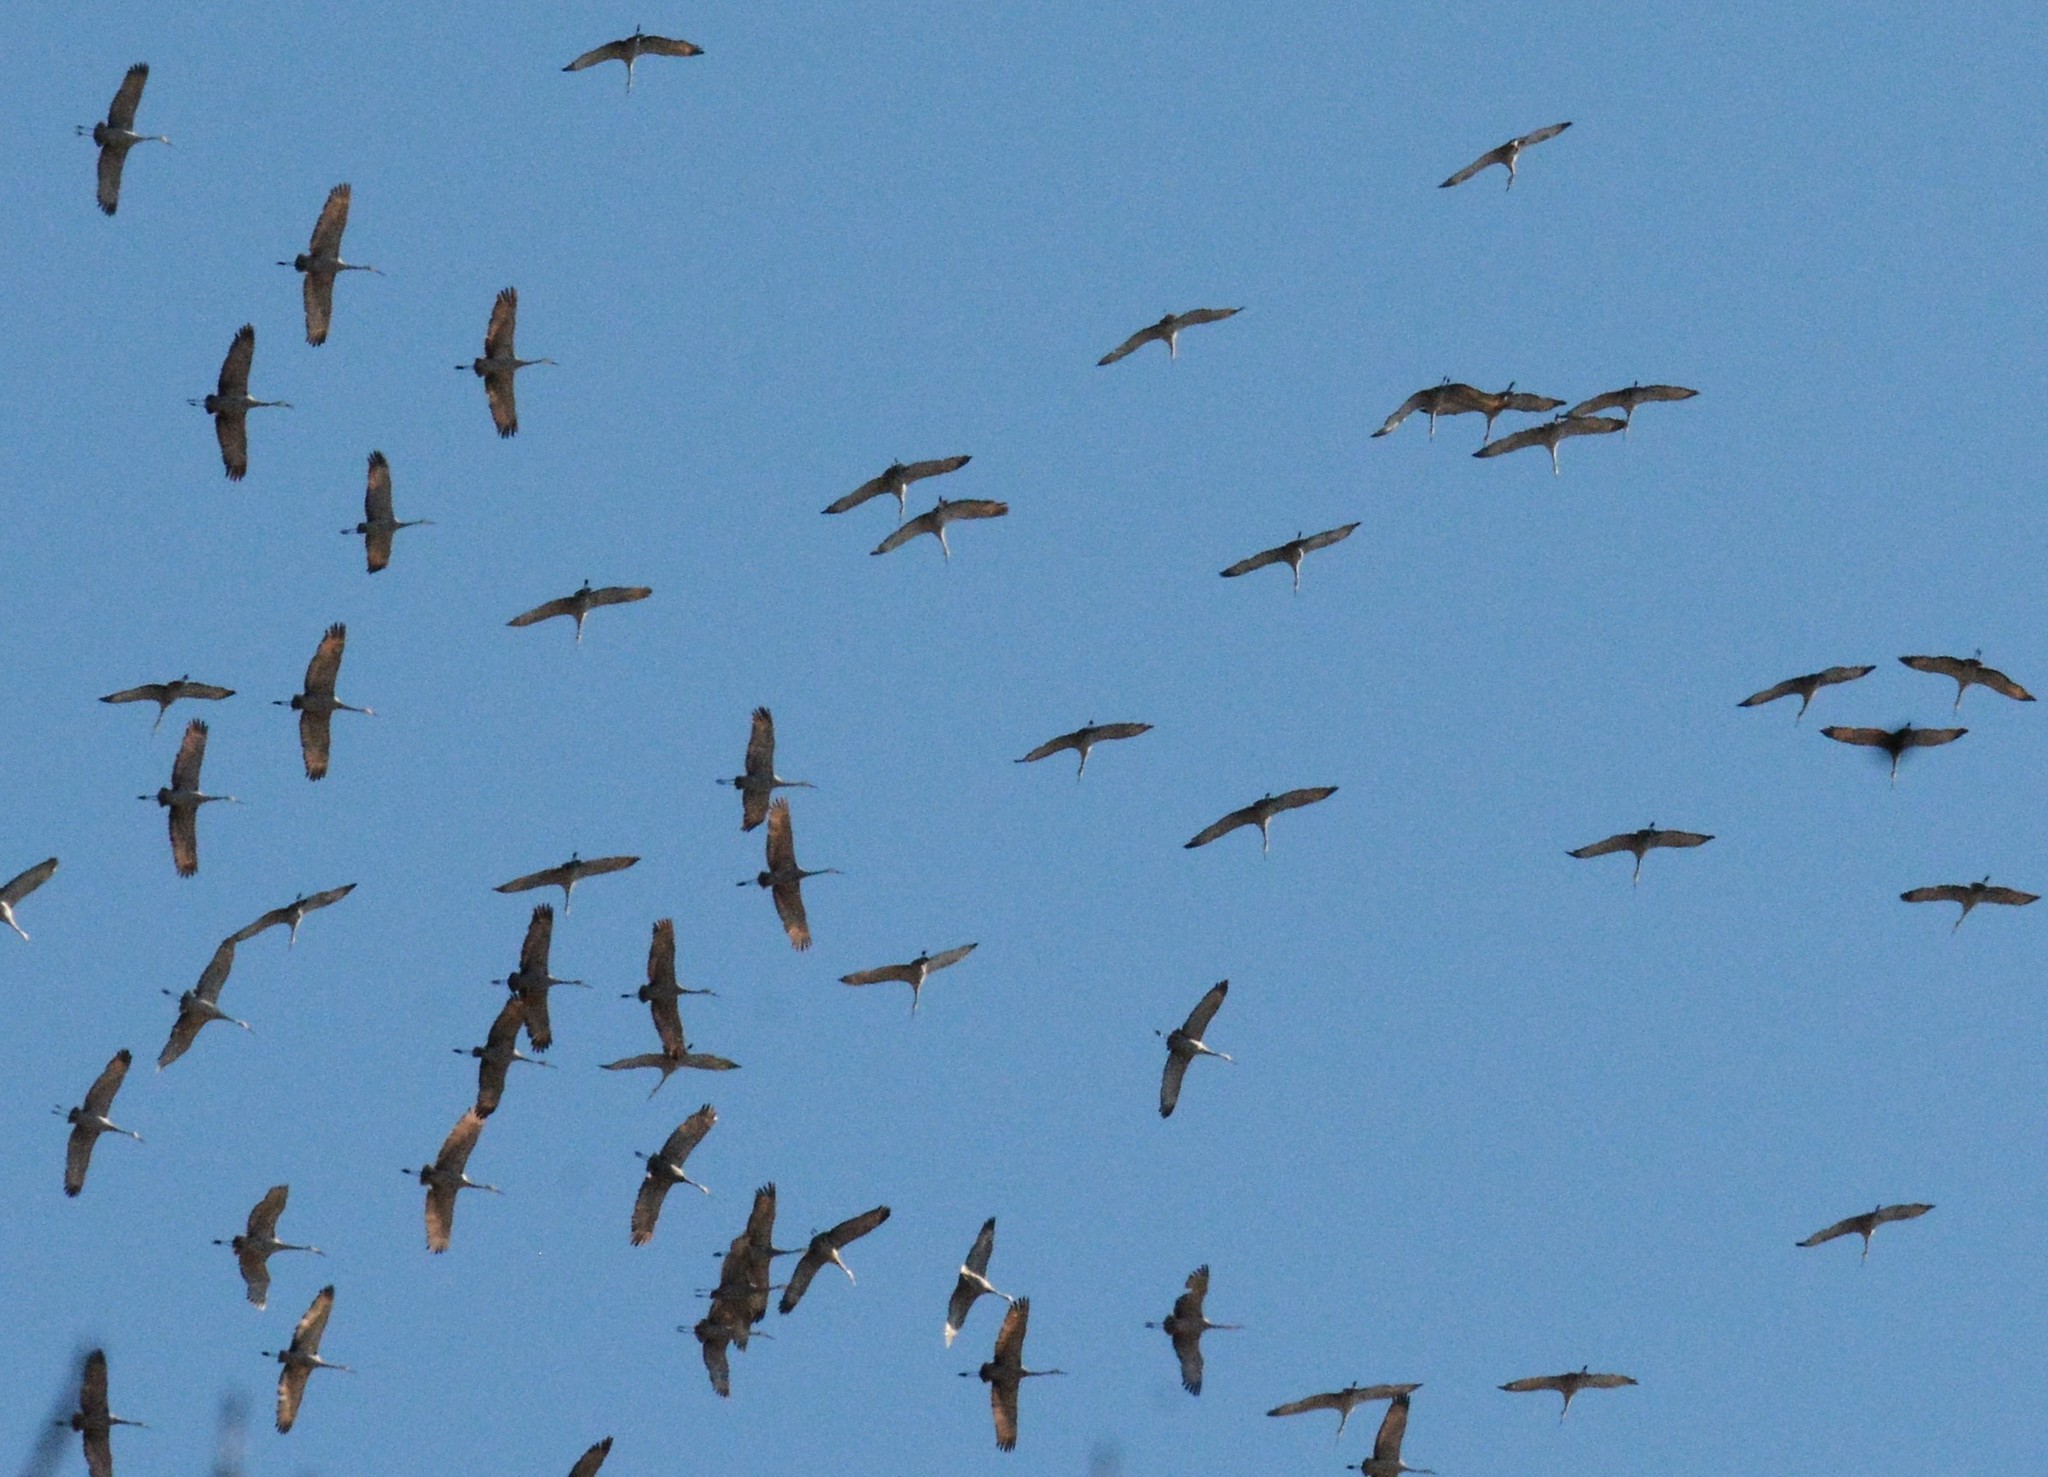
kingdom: Animalia
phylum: Chordata
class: Aves
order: Gruiformes
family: Gruidae
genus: Grus
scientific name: Grus canadensis
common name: Sandhill crane
